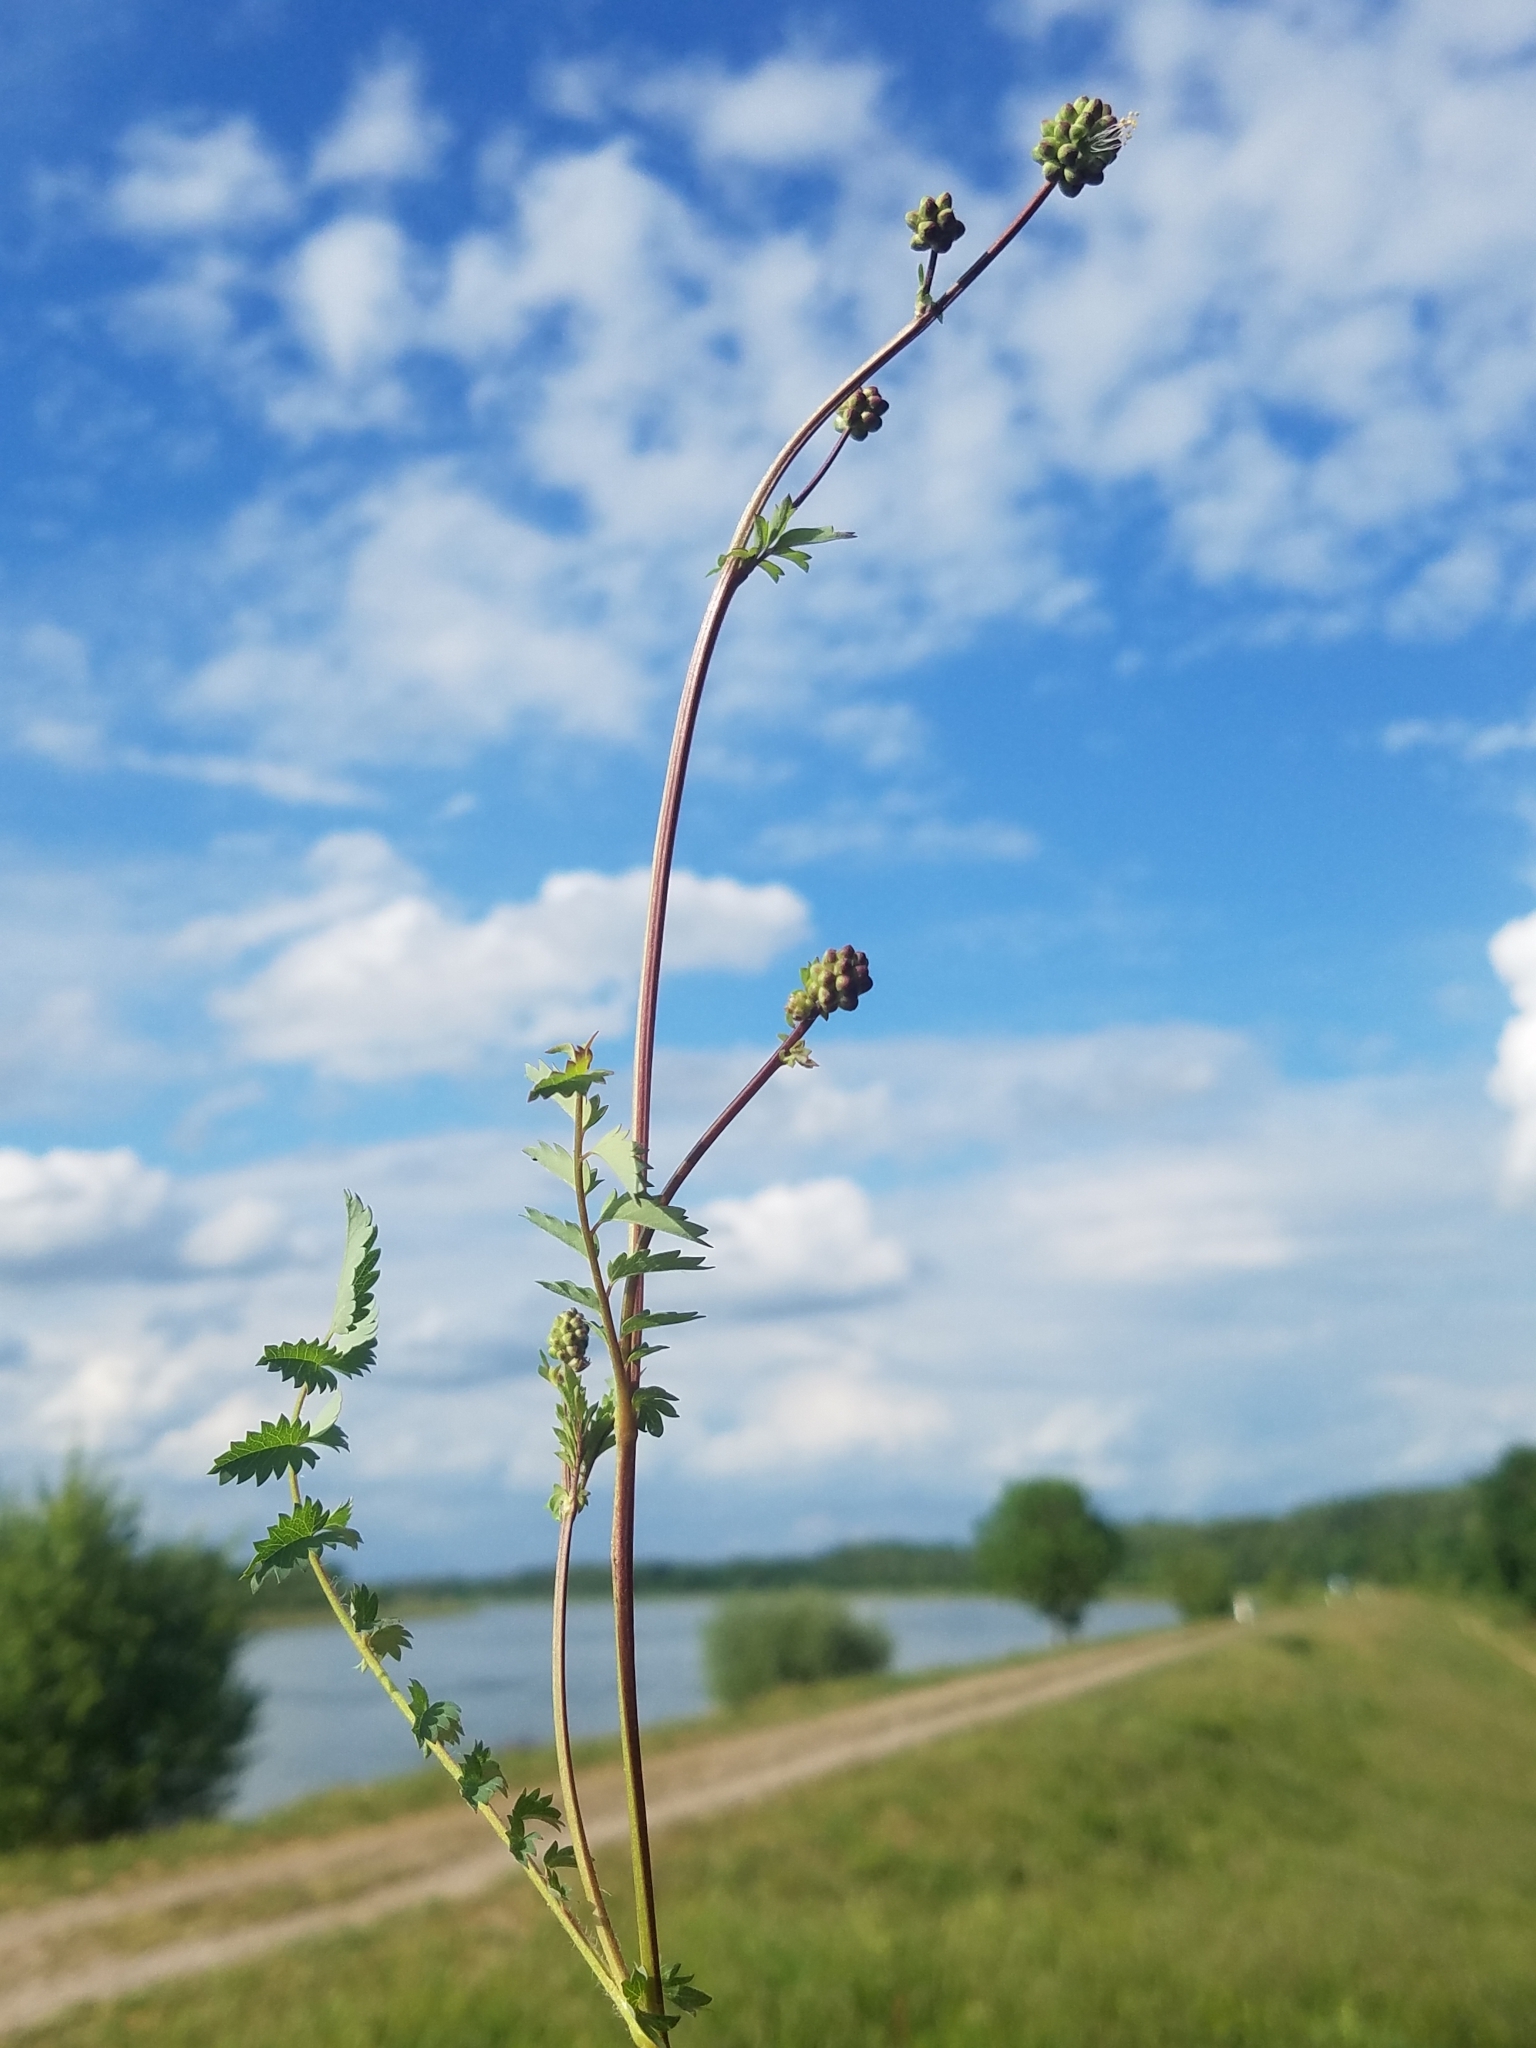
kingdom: Plantae
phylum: Tracheophyta
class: Magnoliopsida
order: Rosales
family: Rosaceae
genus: Poterium
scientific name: Poterium sanguisorba
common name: Salad burnet
